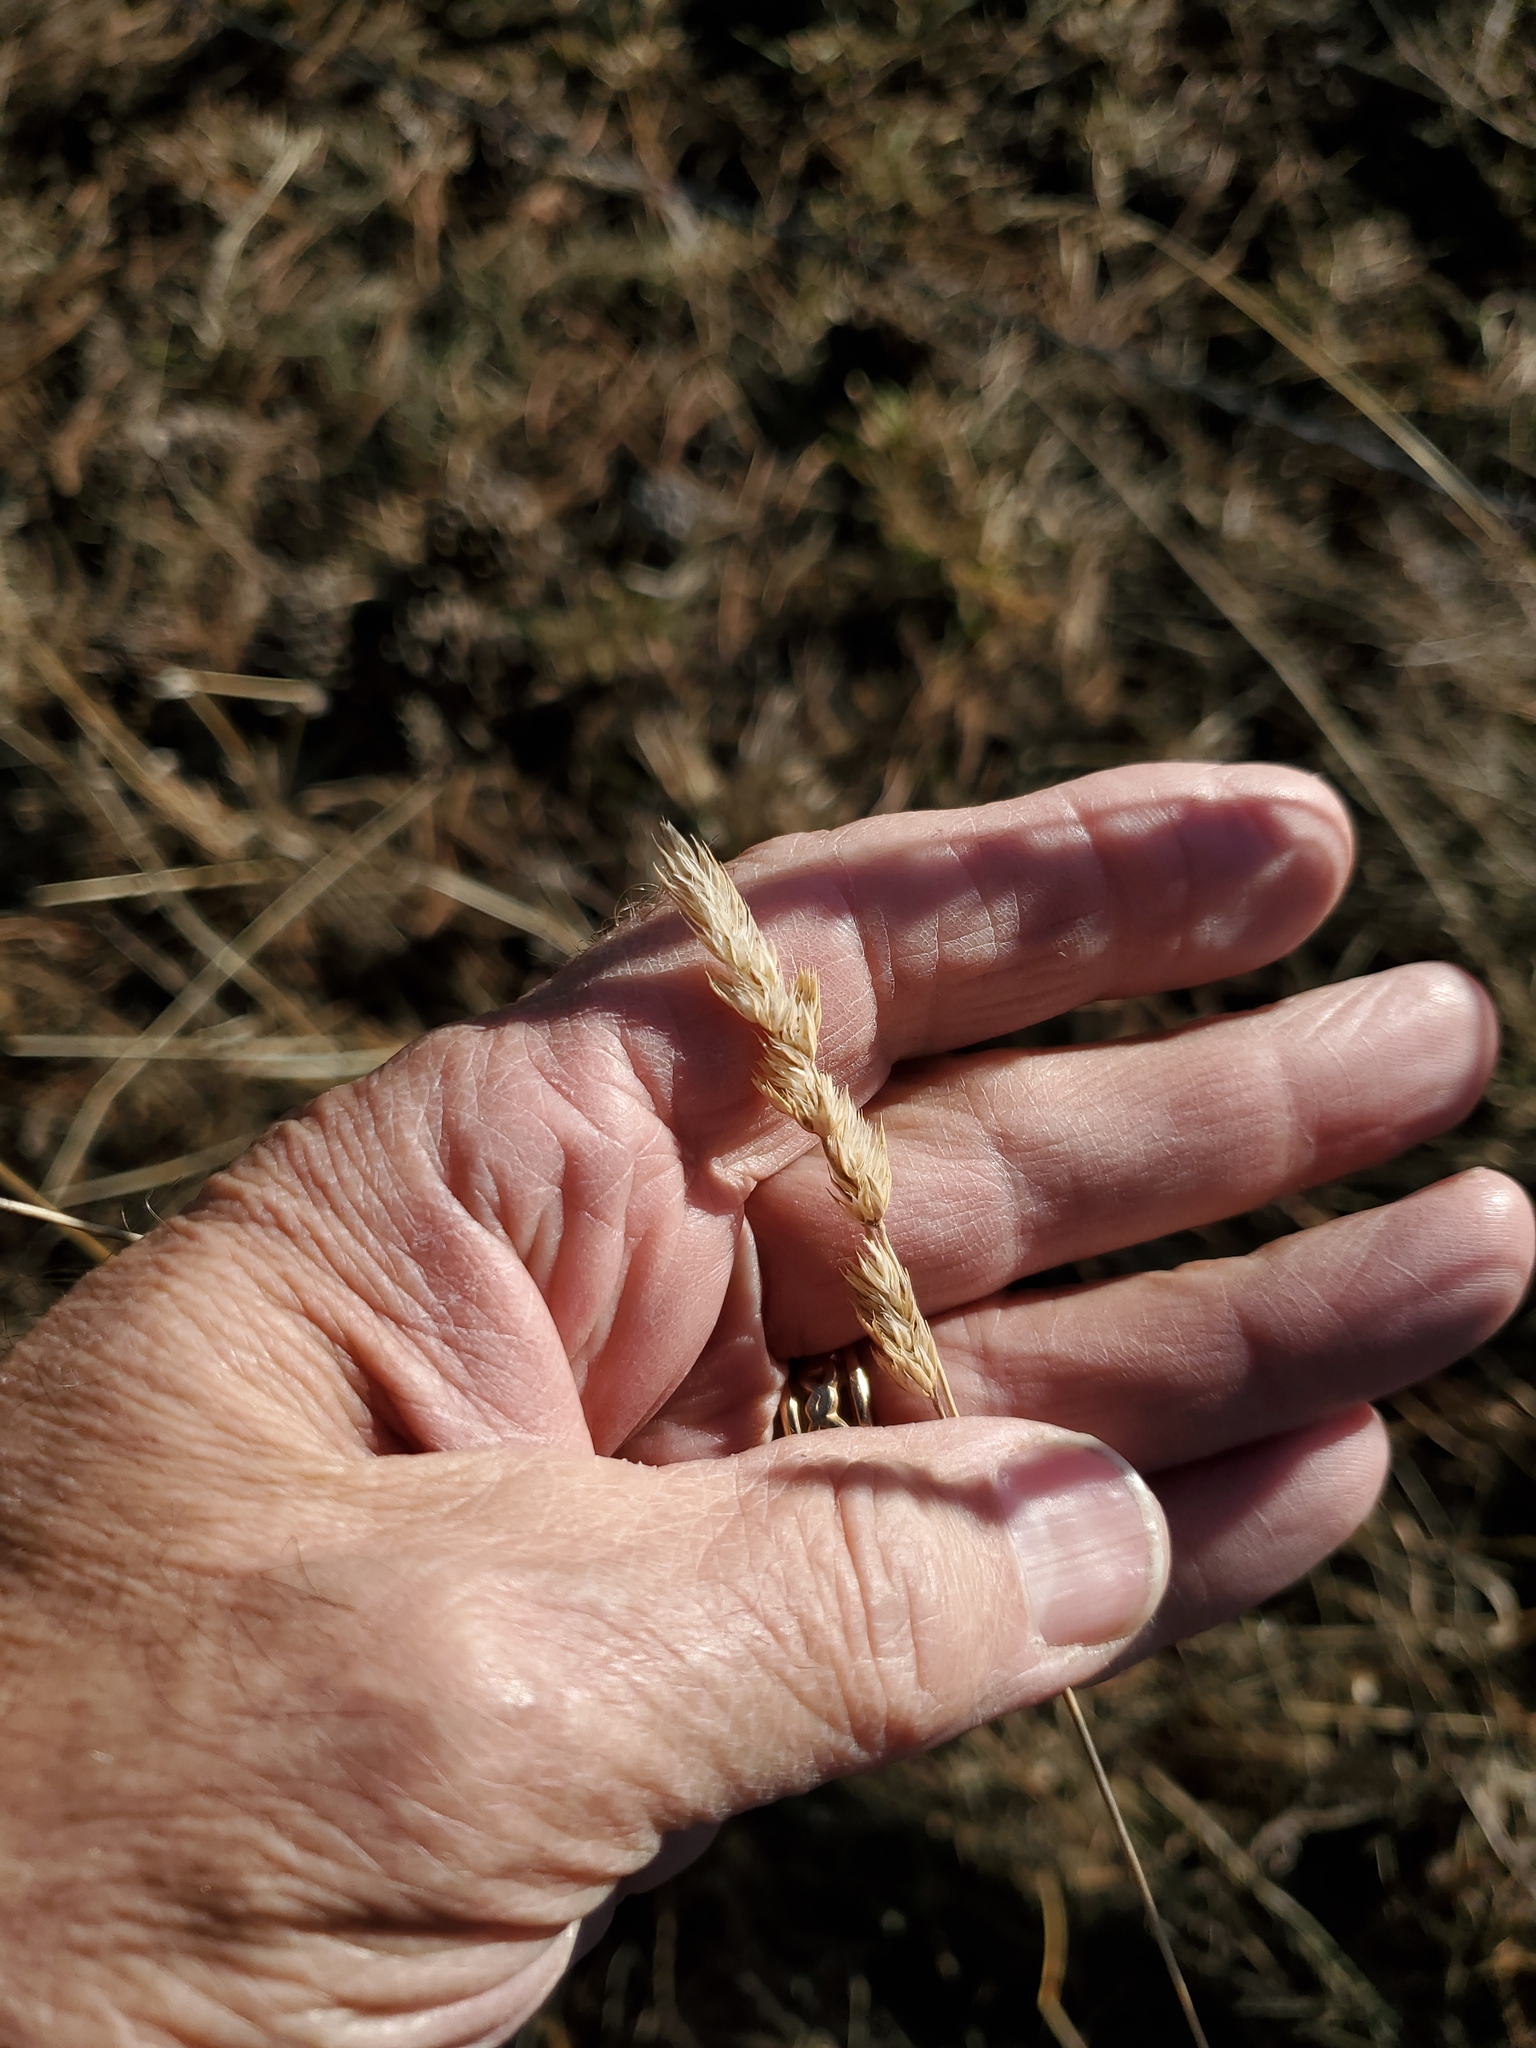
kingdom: Plantae
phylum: Tracheophyta
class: Liliopsida
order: Poales
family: Poaceae
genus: Dactylis
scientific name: Dactylis glomerata
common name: Orchardgrass
